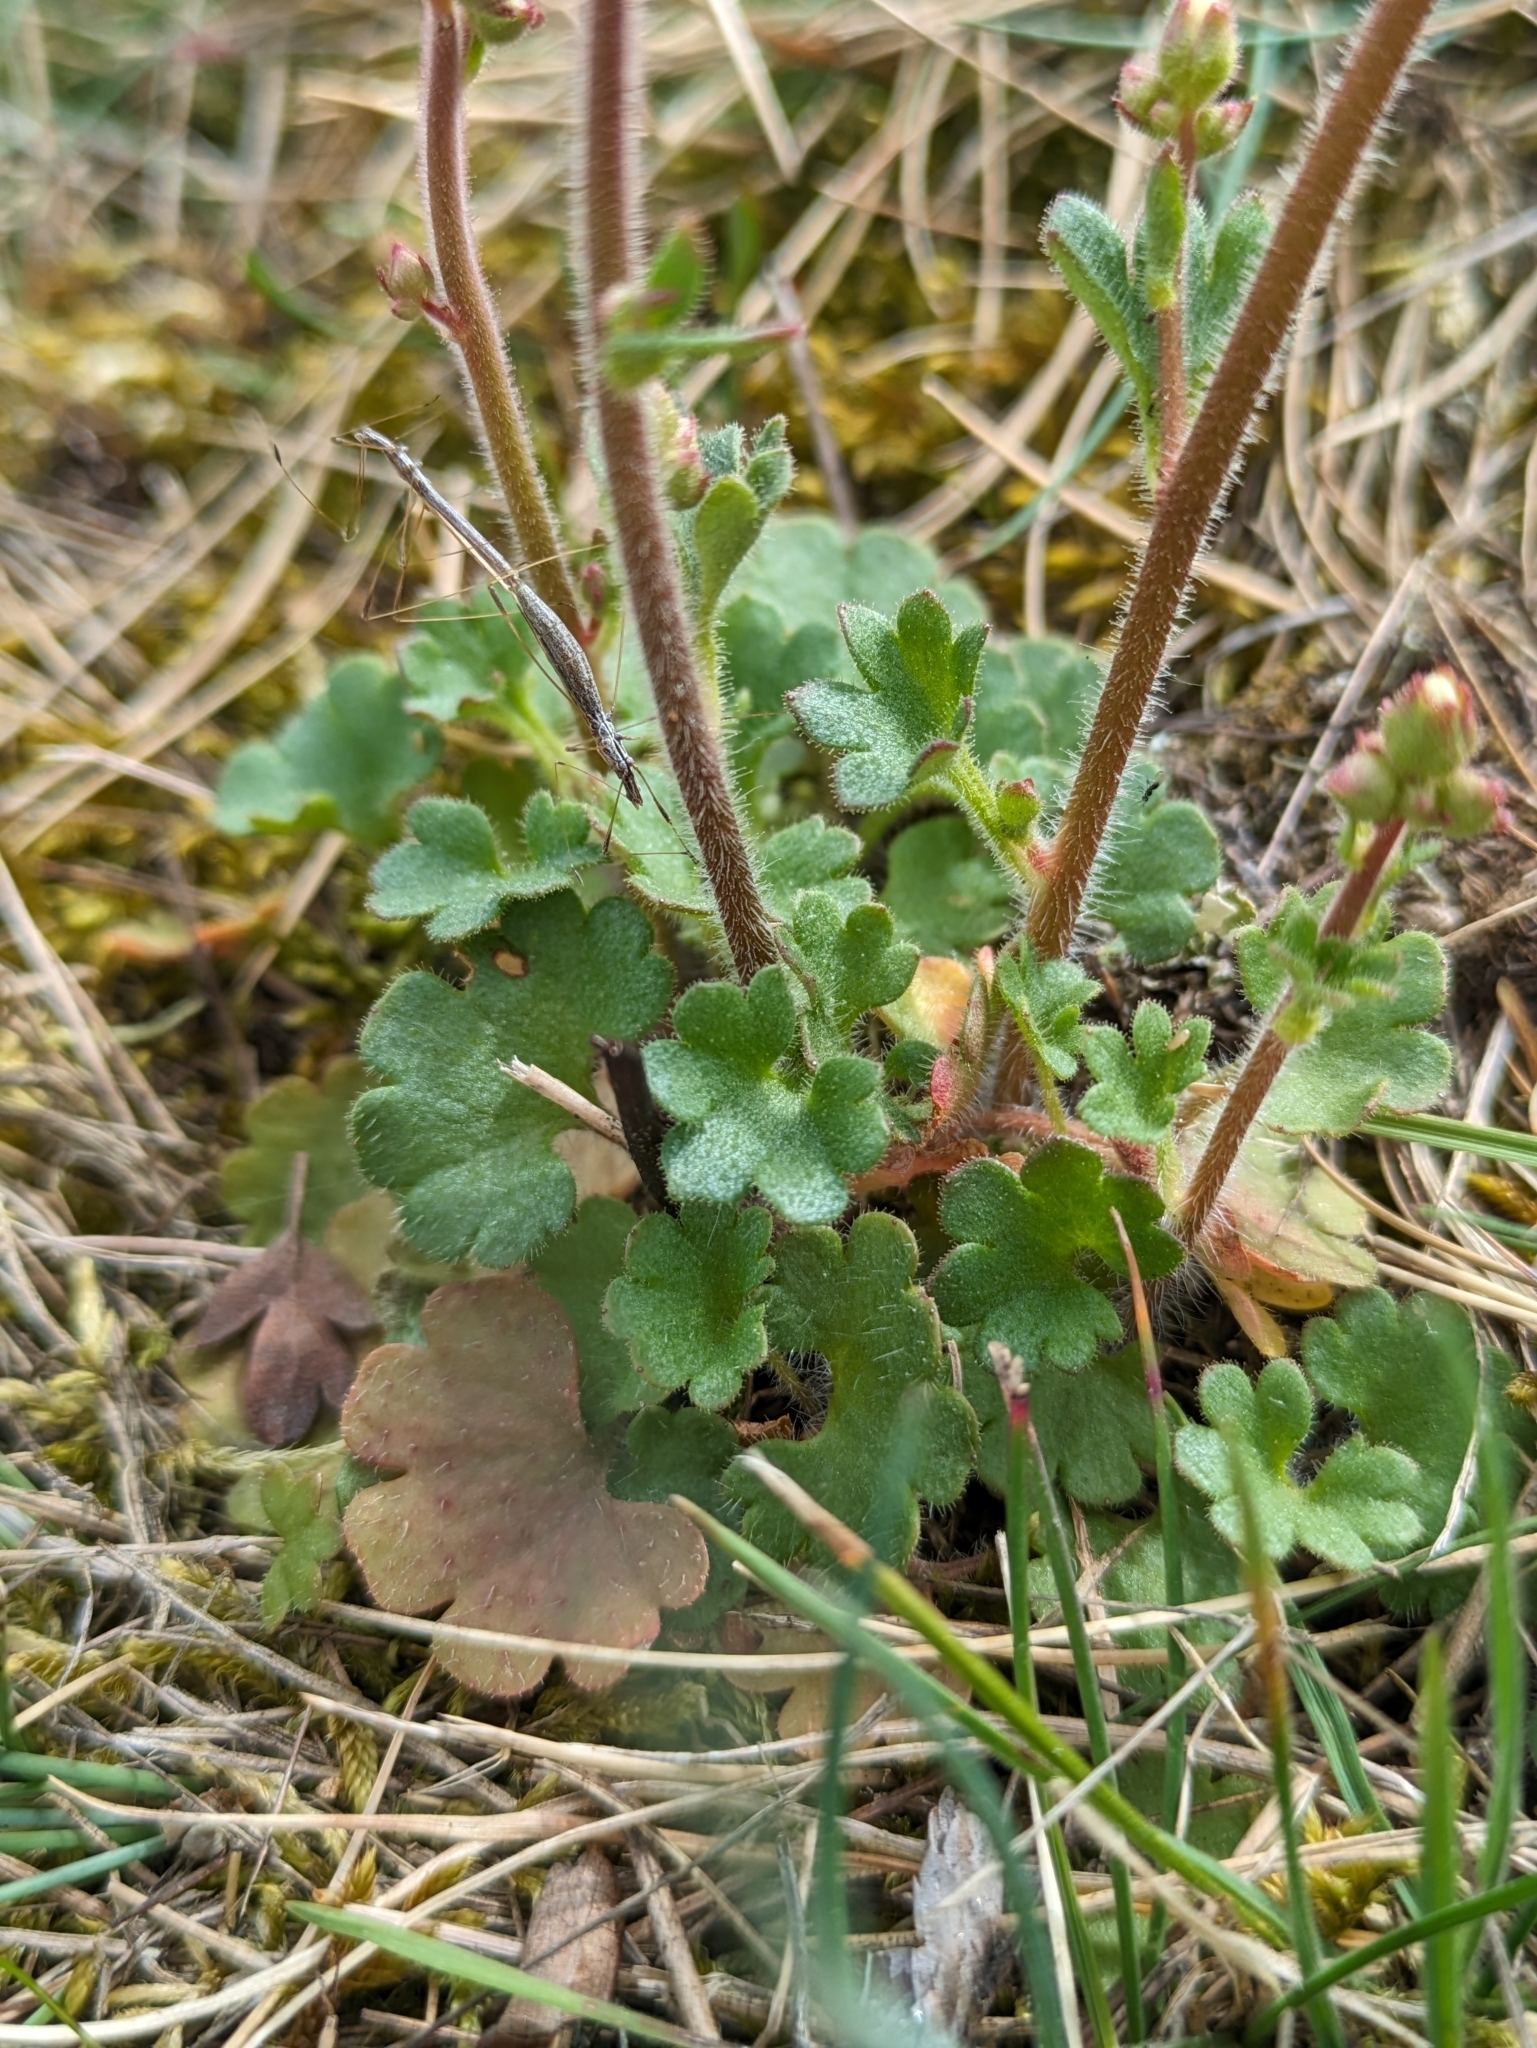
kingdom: Plantae
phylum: Tracheophyta
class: Magnoliopsida
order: Saxifragales
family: Saxifragaceae
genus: Saxifraga
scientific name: Saxifraga granulata
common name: Meadow saxifrage
